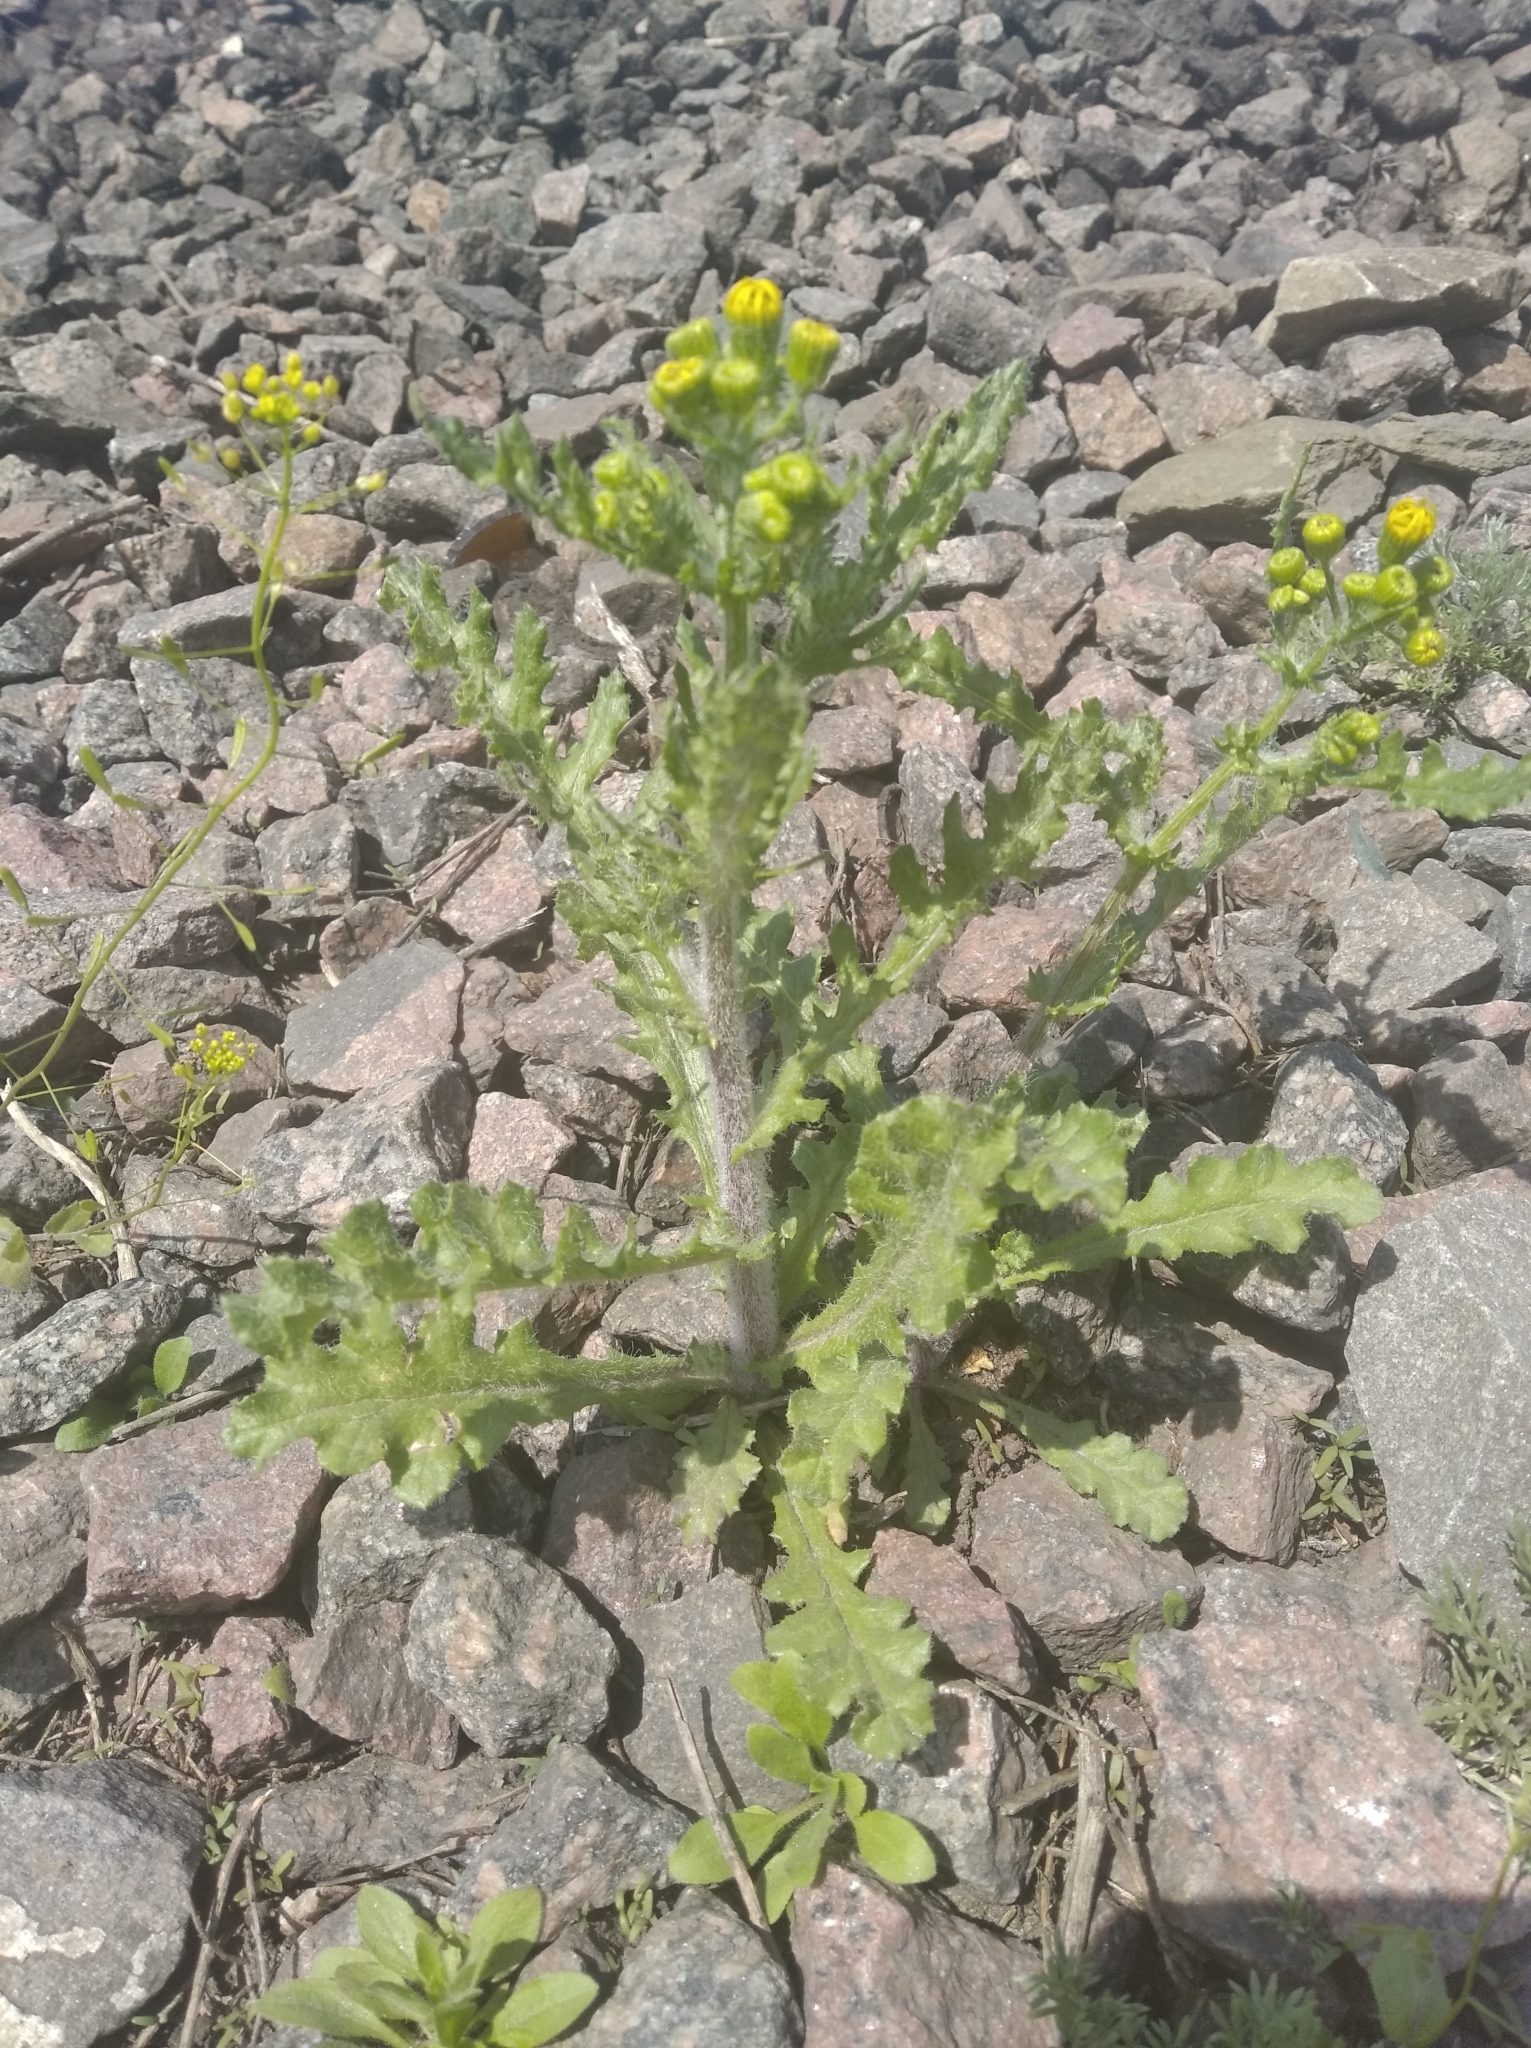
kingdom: Plantae
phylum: Tracheophyta
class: Magnoliopsida
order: Asterales
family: Asteraceae
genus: Senecio
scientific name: Senecio vernalis
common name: Eastern groundsel
